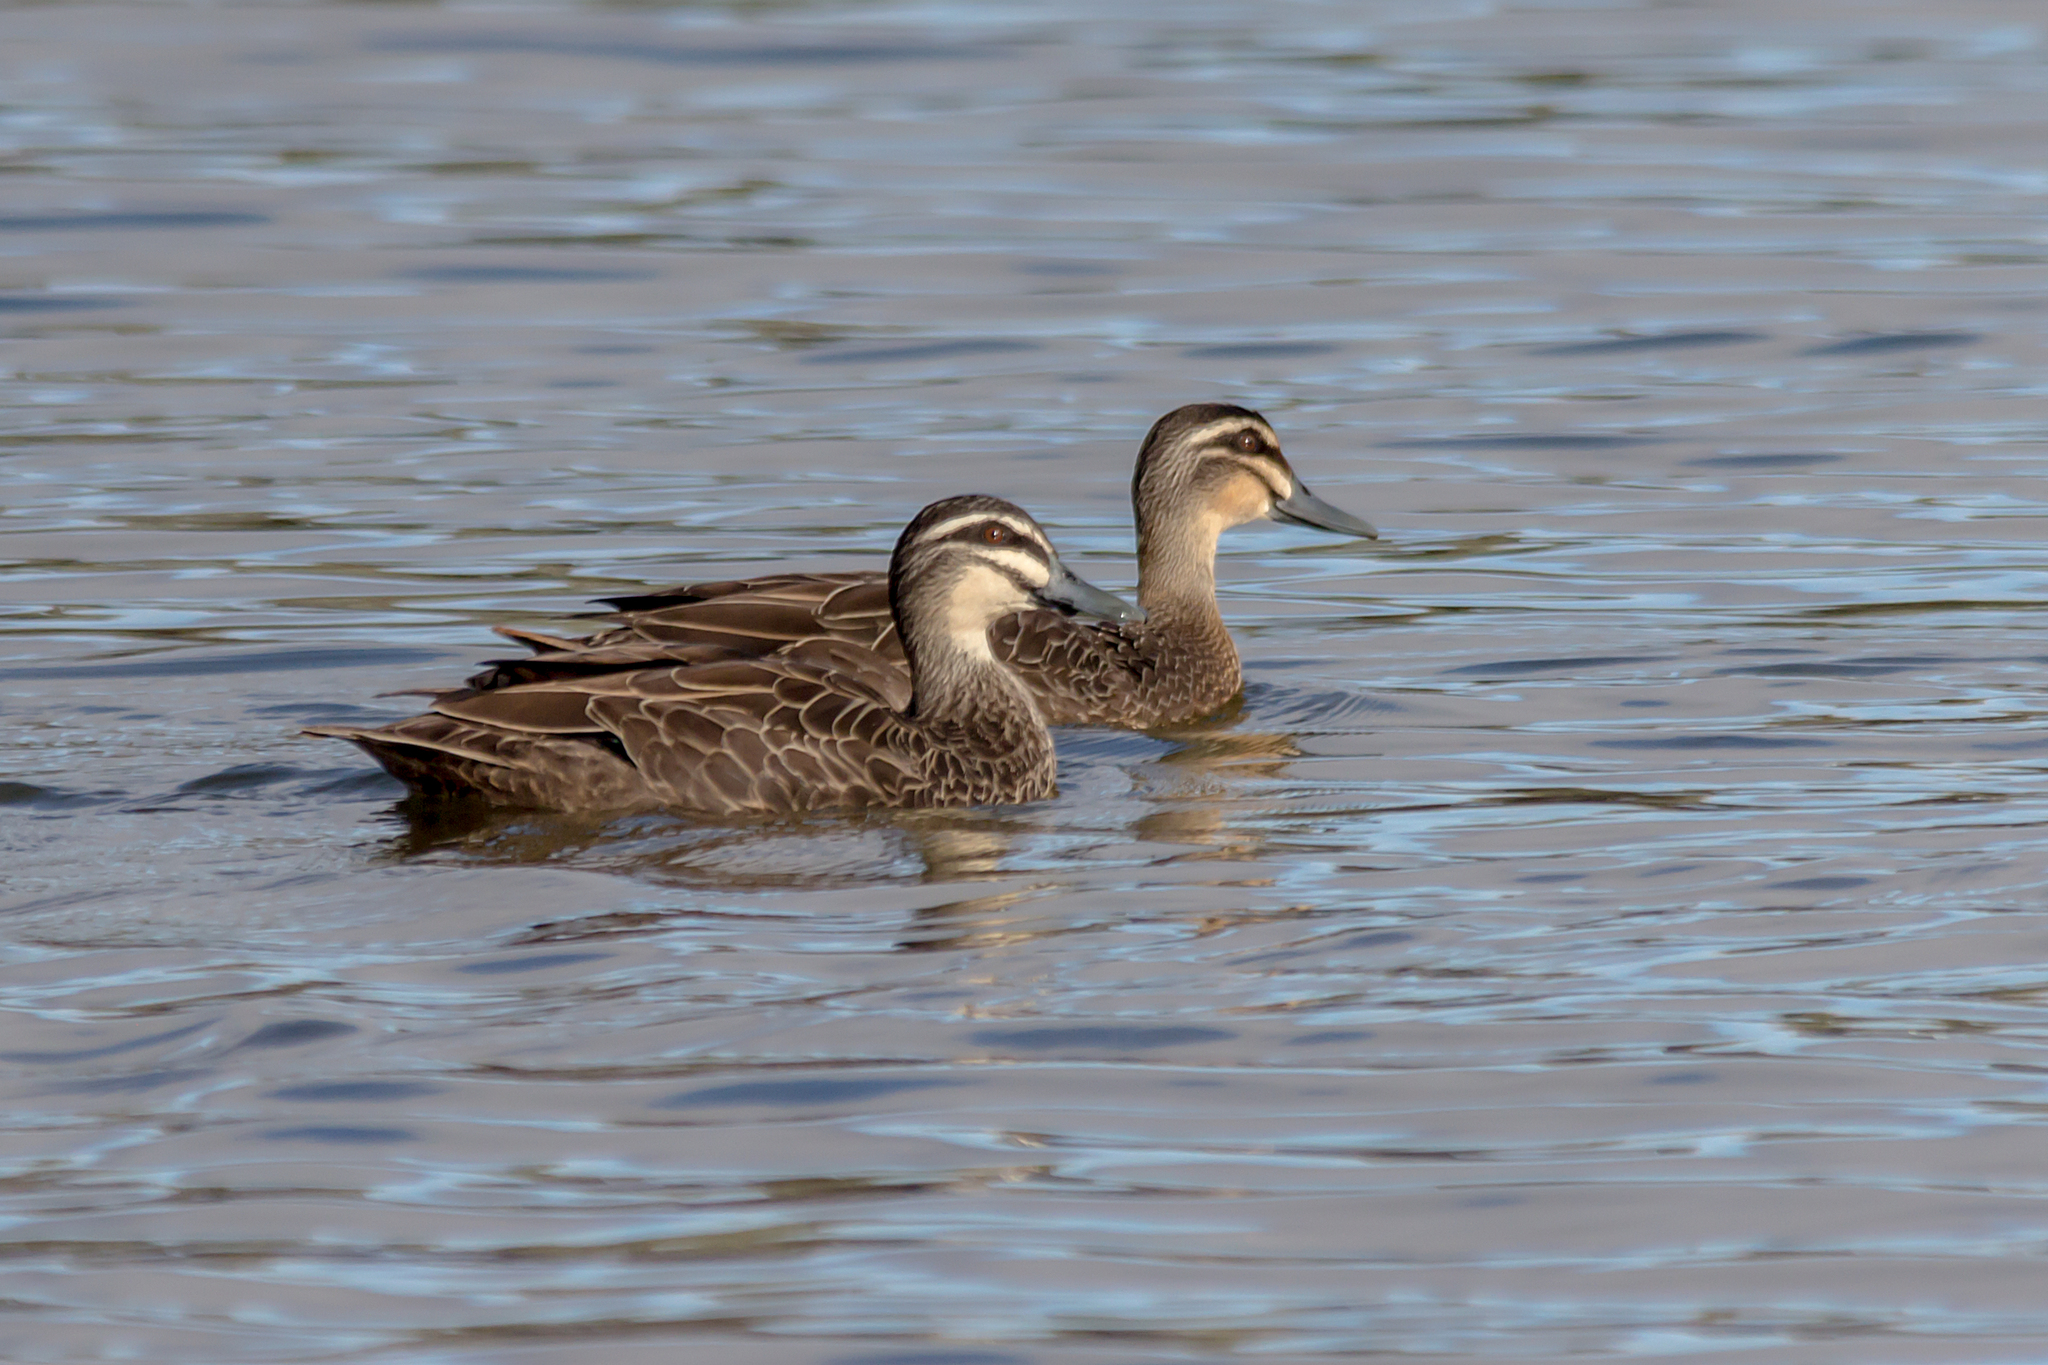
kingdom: Animalia
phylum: Chordata
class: Aves
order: Anseriformes
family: Anatidae
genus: Anas
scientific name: Anas superciliosa
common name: Pacific black duck
